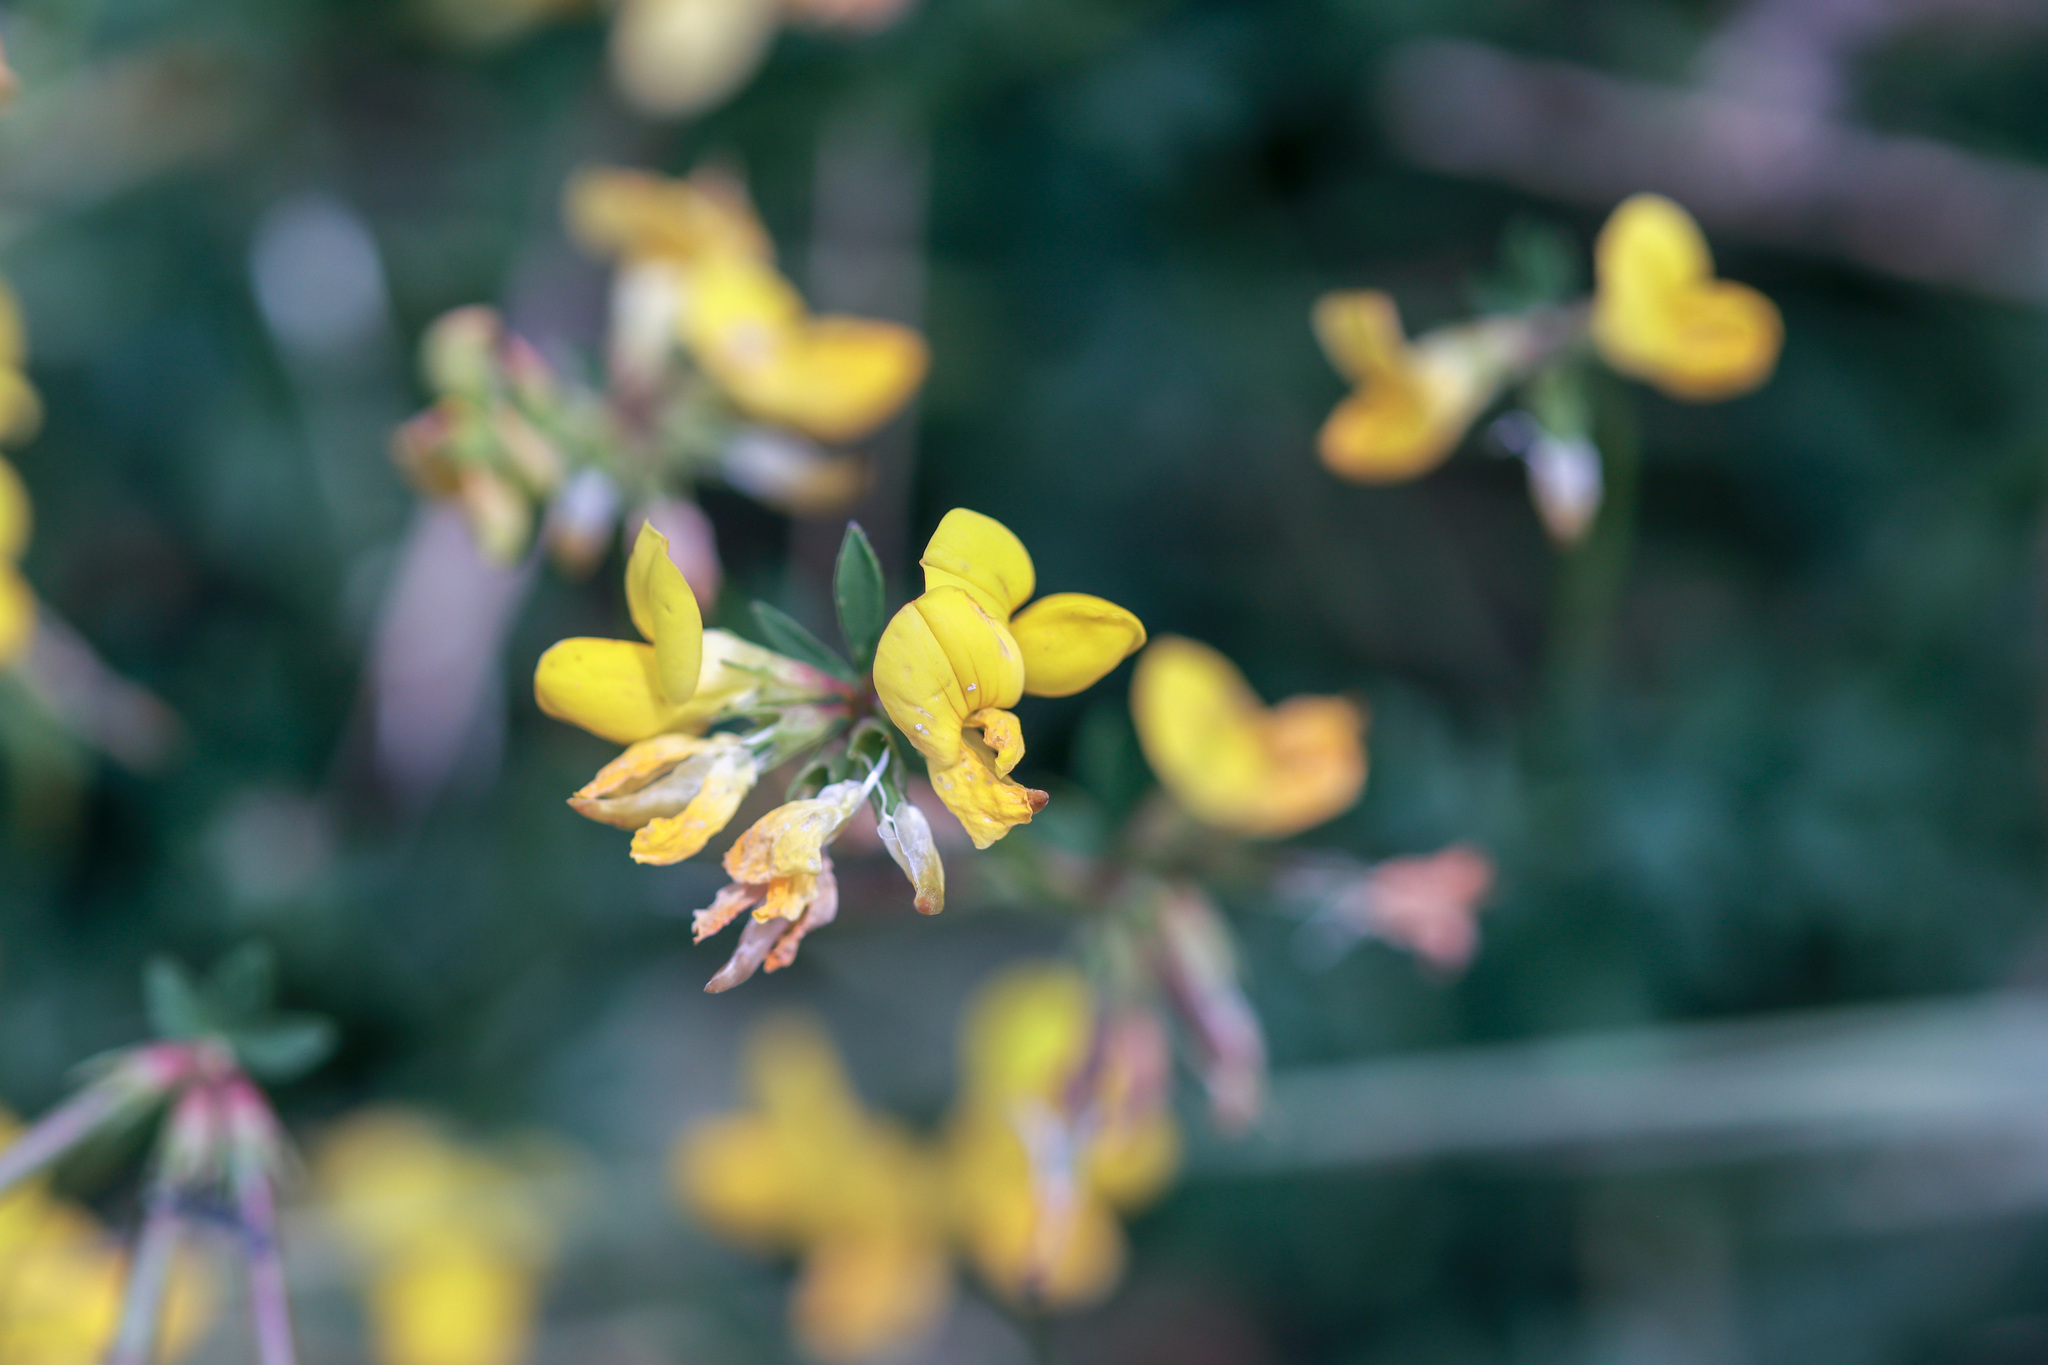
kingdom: Plantae
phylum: Tracheophyta
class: Magnoliopsida
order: Fabales
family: Fabaceae
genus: Lotus
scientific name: Lotus corniculatus
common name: Common bird's-foot-trefoil
